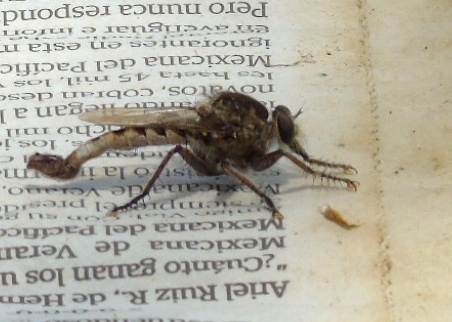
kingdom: Animalia
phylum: Arthropoda
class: Insecta
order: Diptera
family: Asilidae
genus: Efferia
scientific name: Efferia
